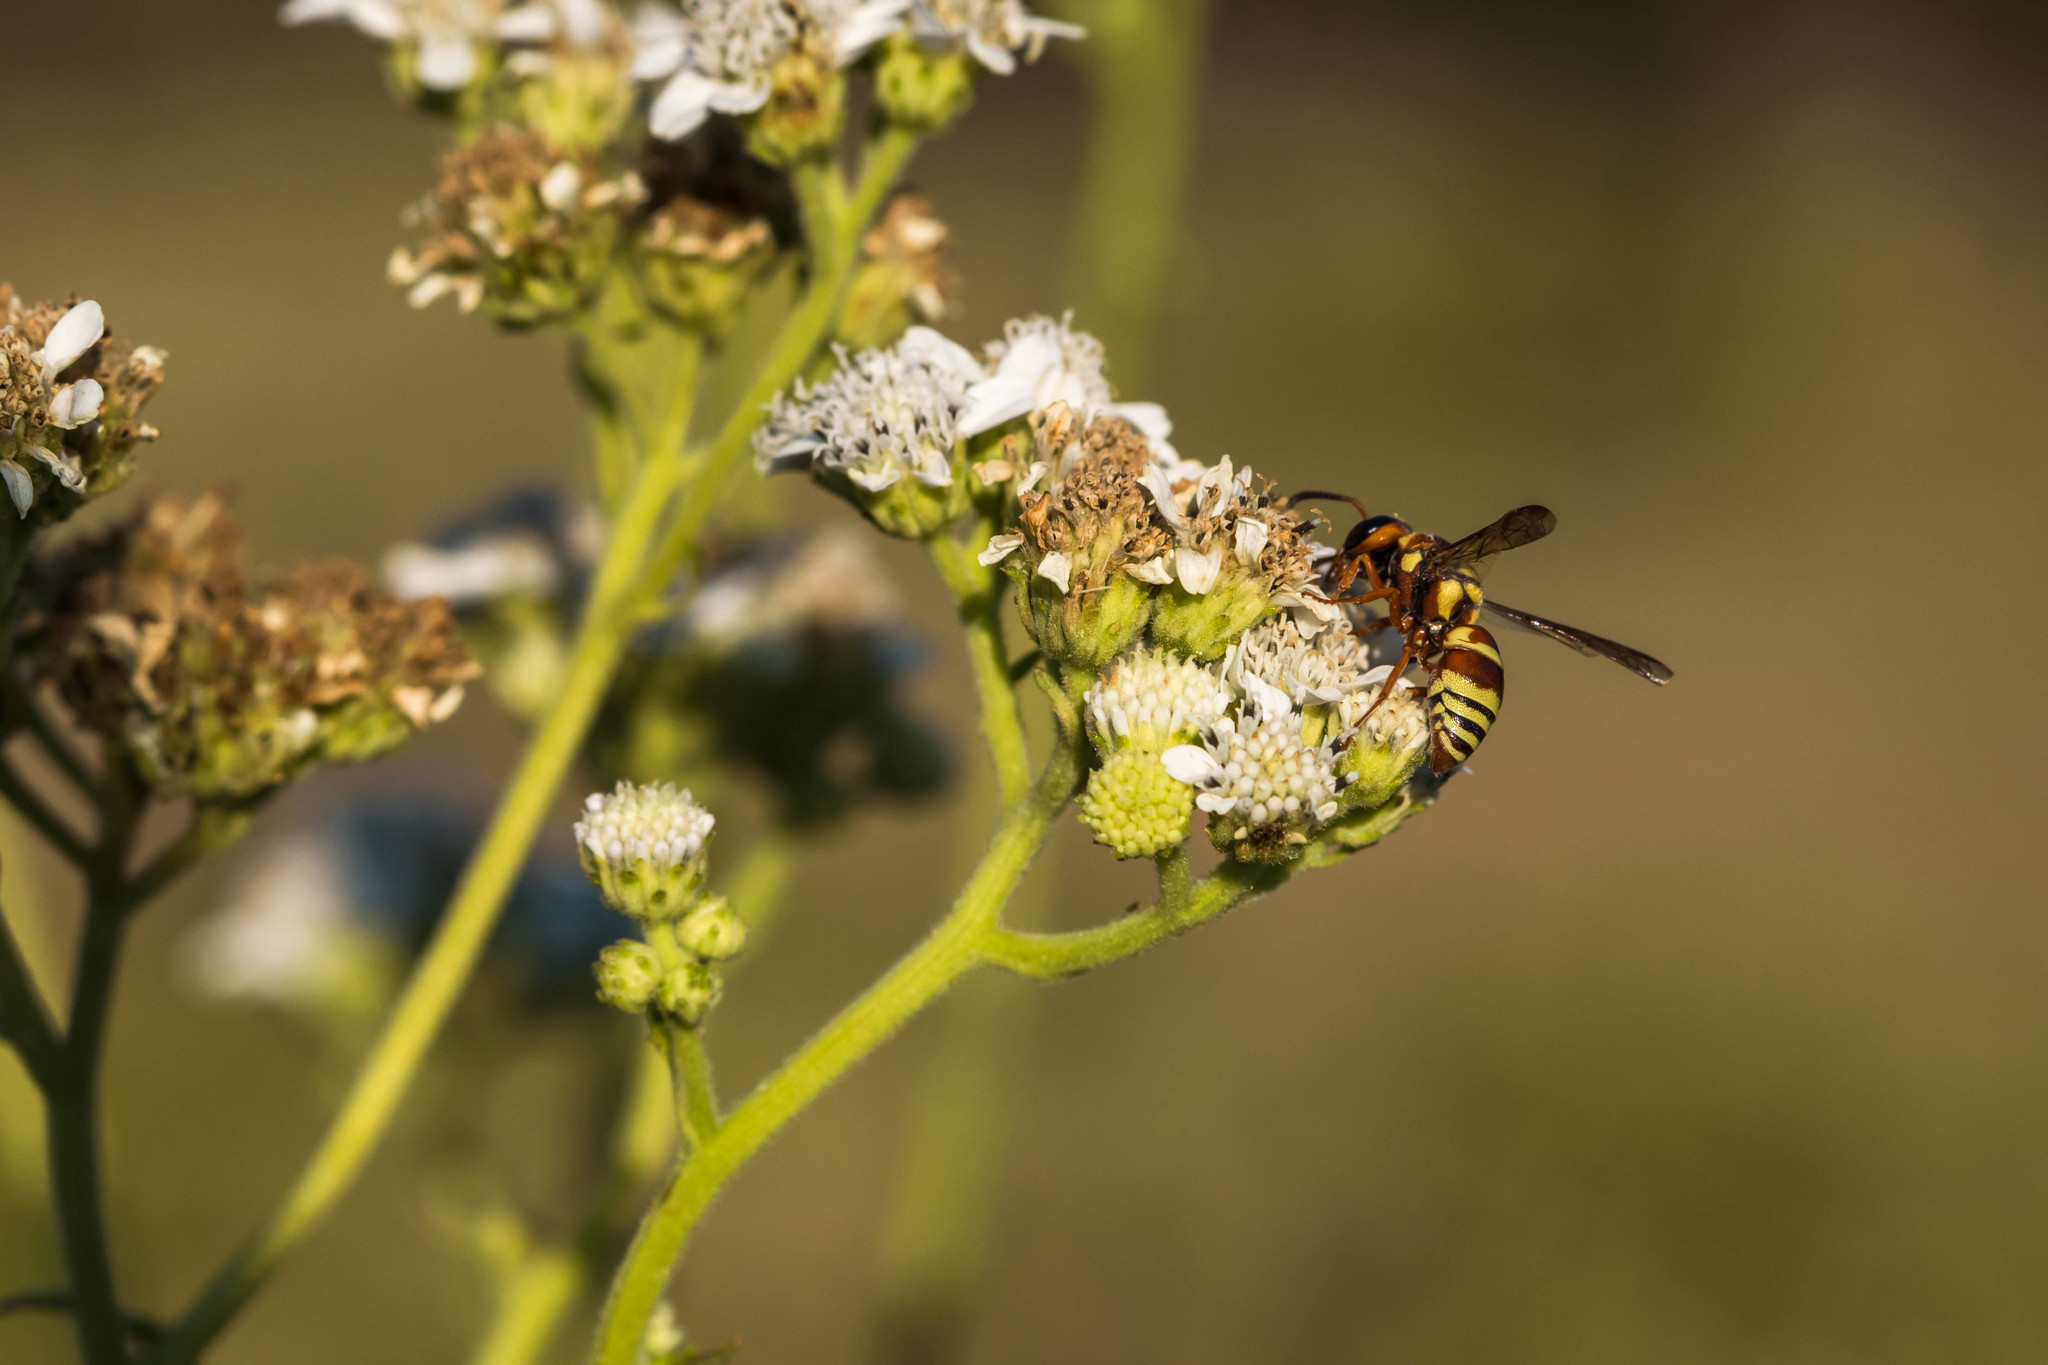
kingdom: Animalia
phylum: Arthropoda
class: Insecta
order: Hymenoptera
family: Eumenidae
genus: Euodynerus
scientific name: Euodynerus annulatus
